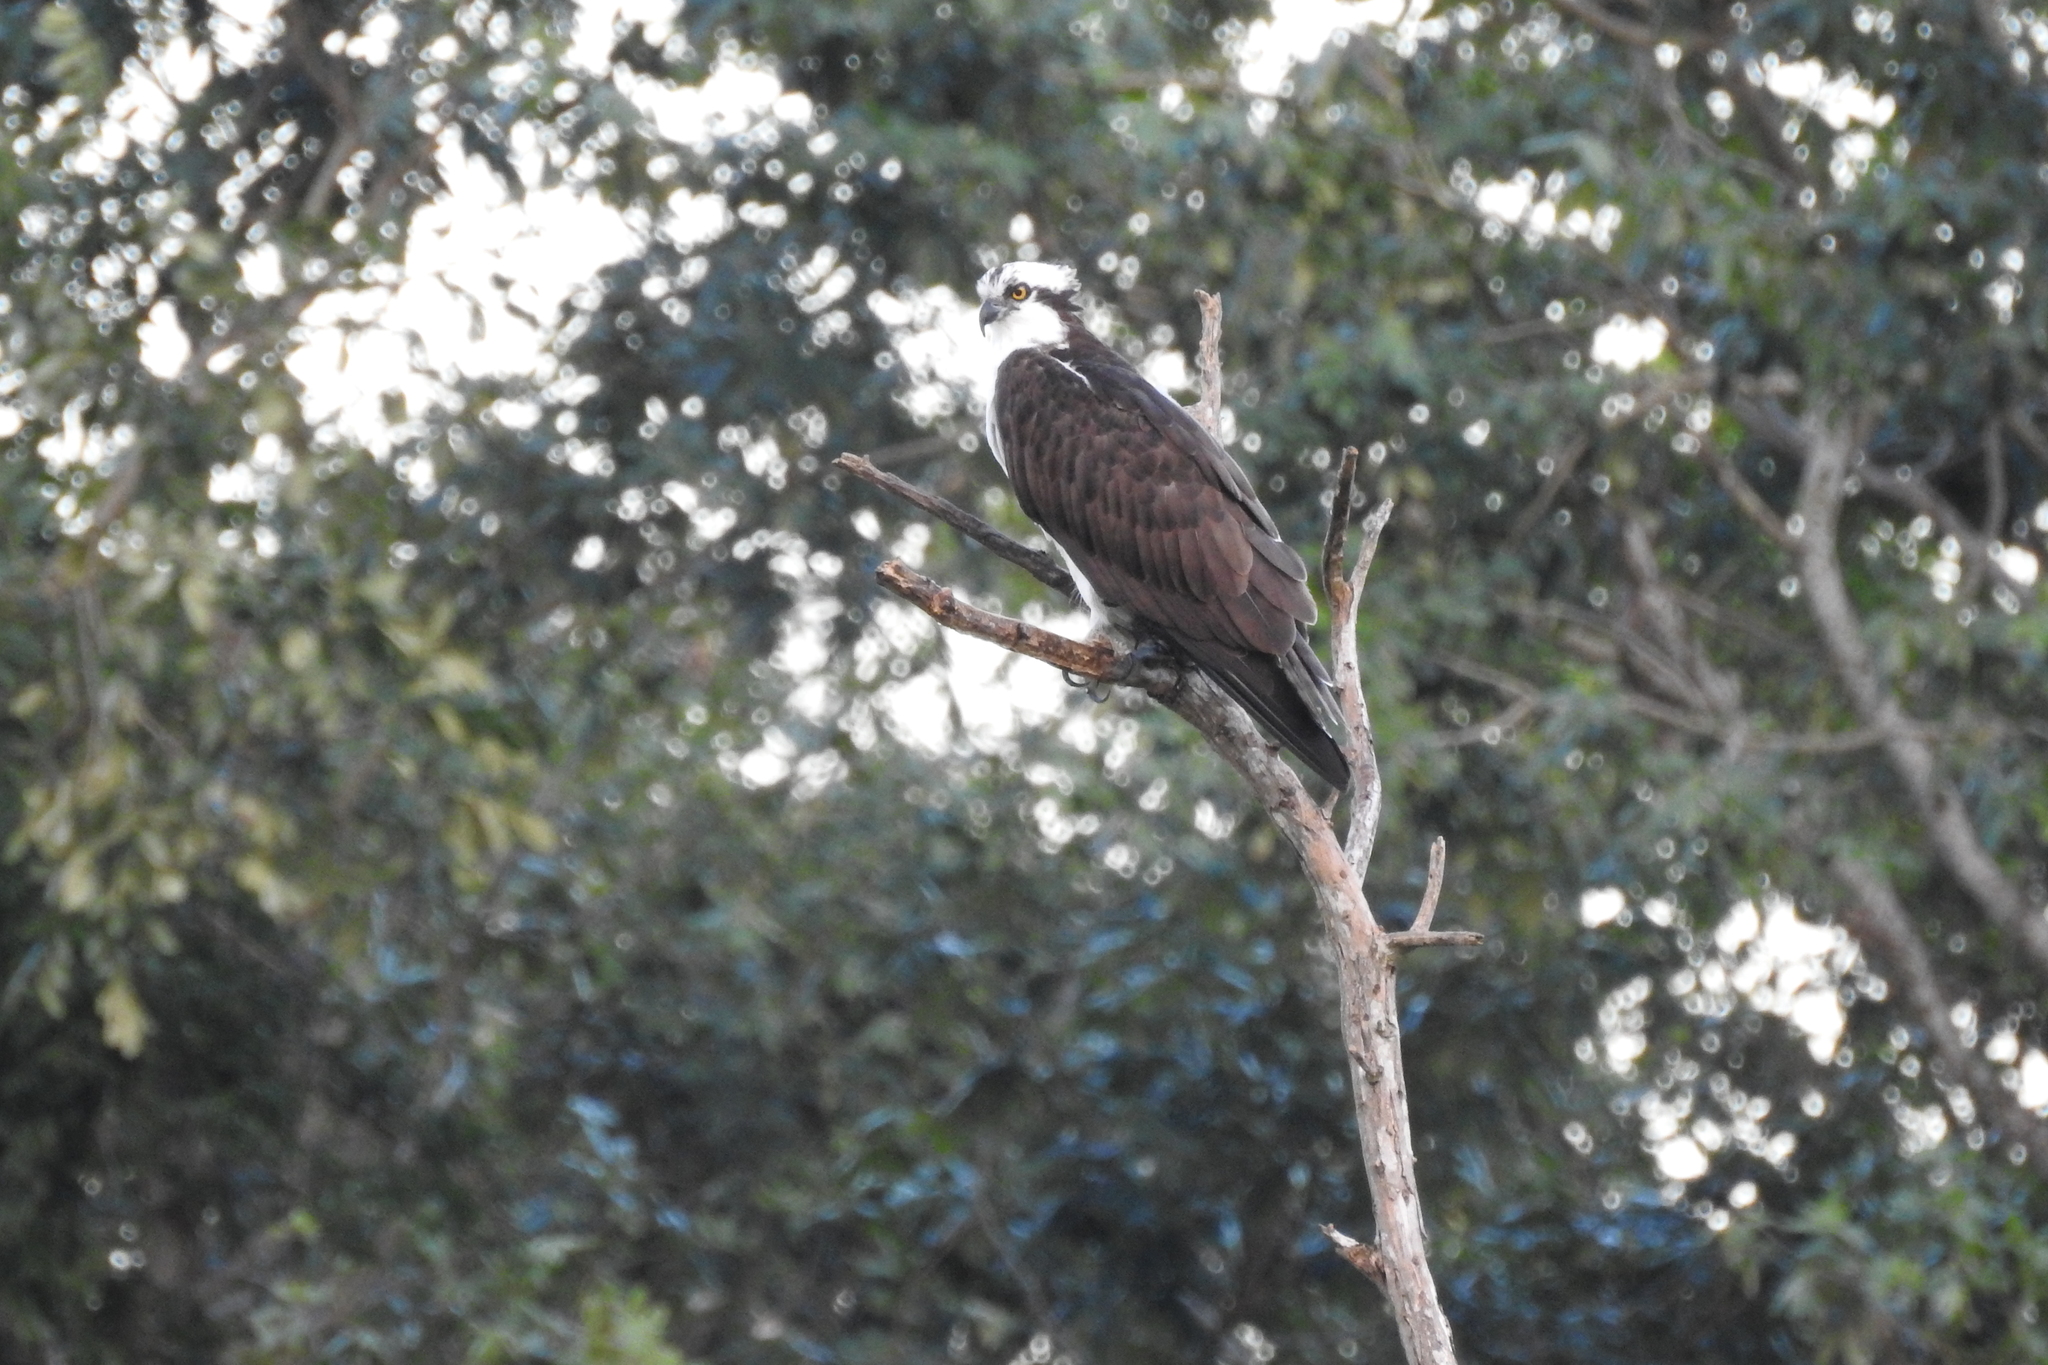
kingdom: Animalia
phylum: Chordata
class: Aves
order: Accipitriformes
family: Pandionidae
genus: Pandion
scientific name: Pandion haliaetus
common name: Osprey
